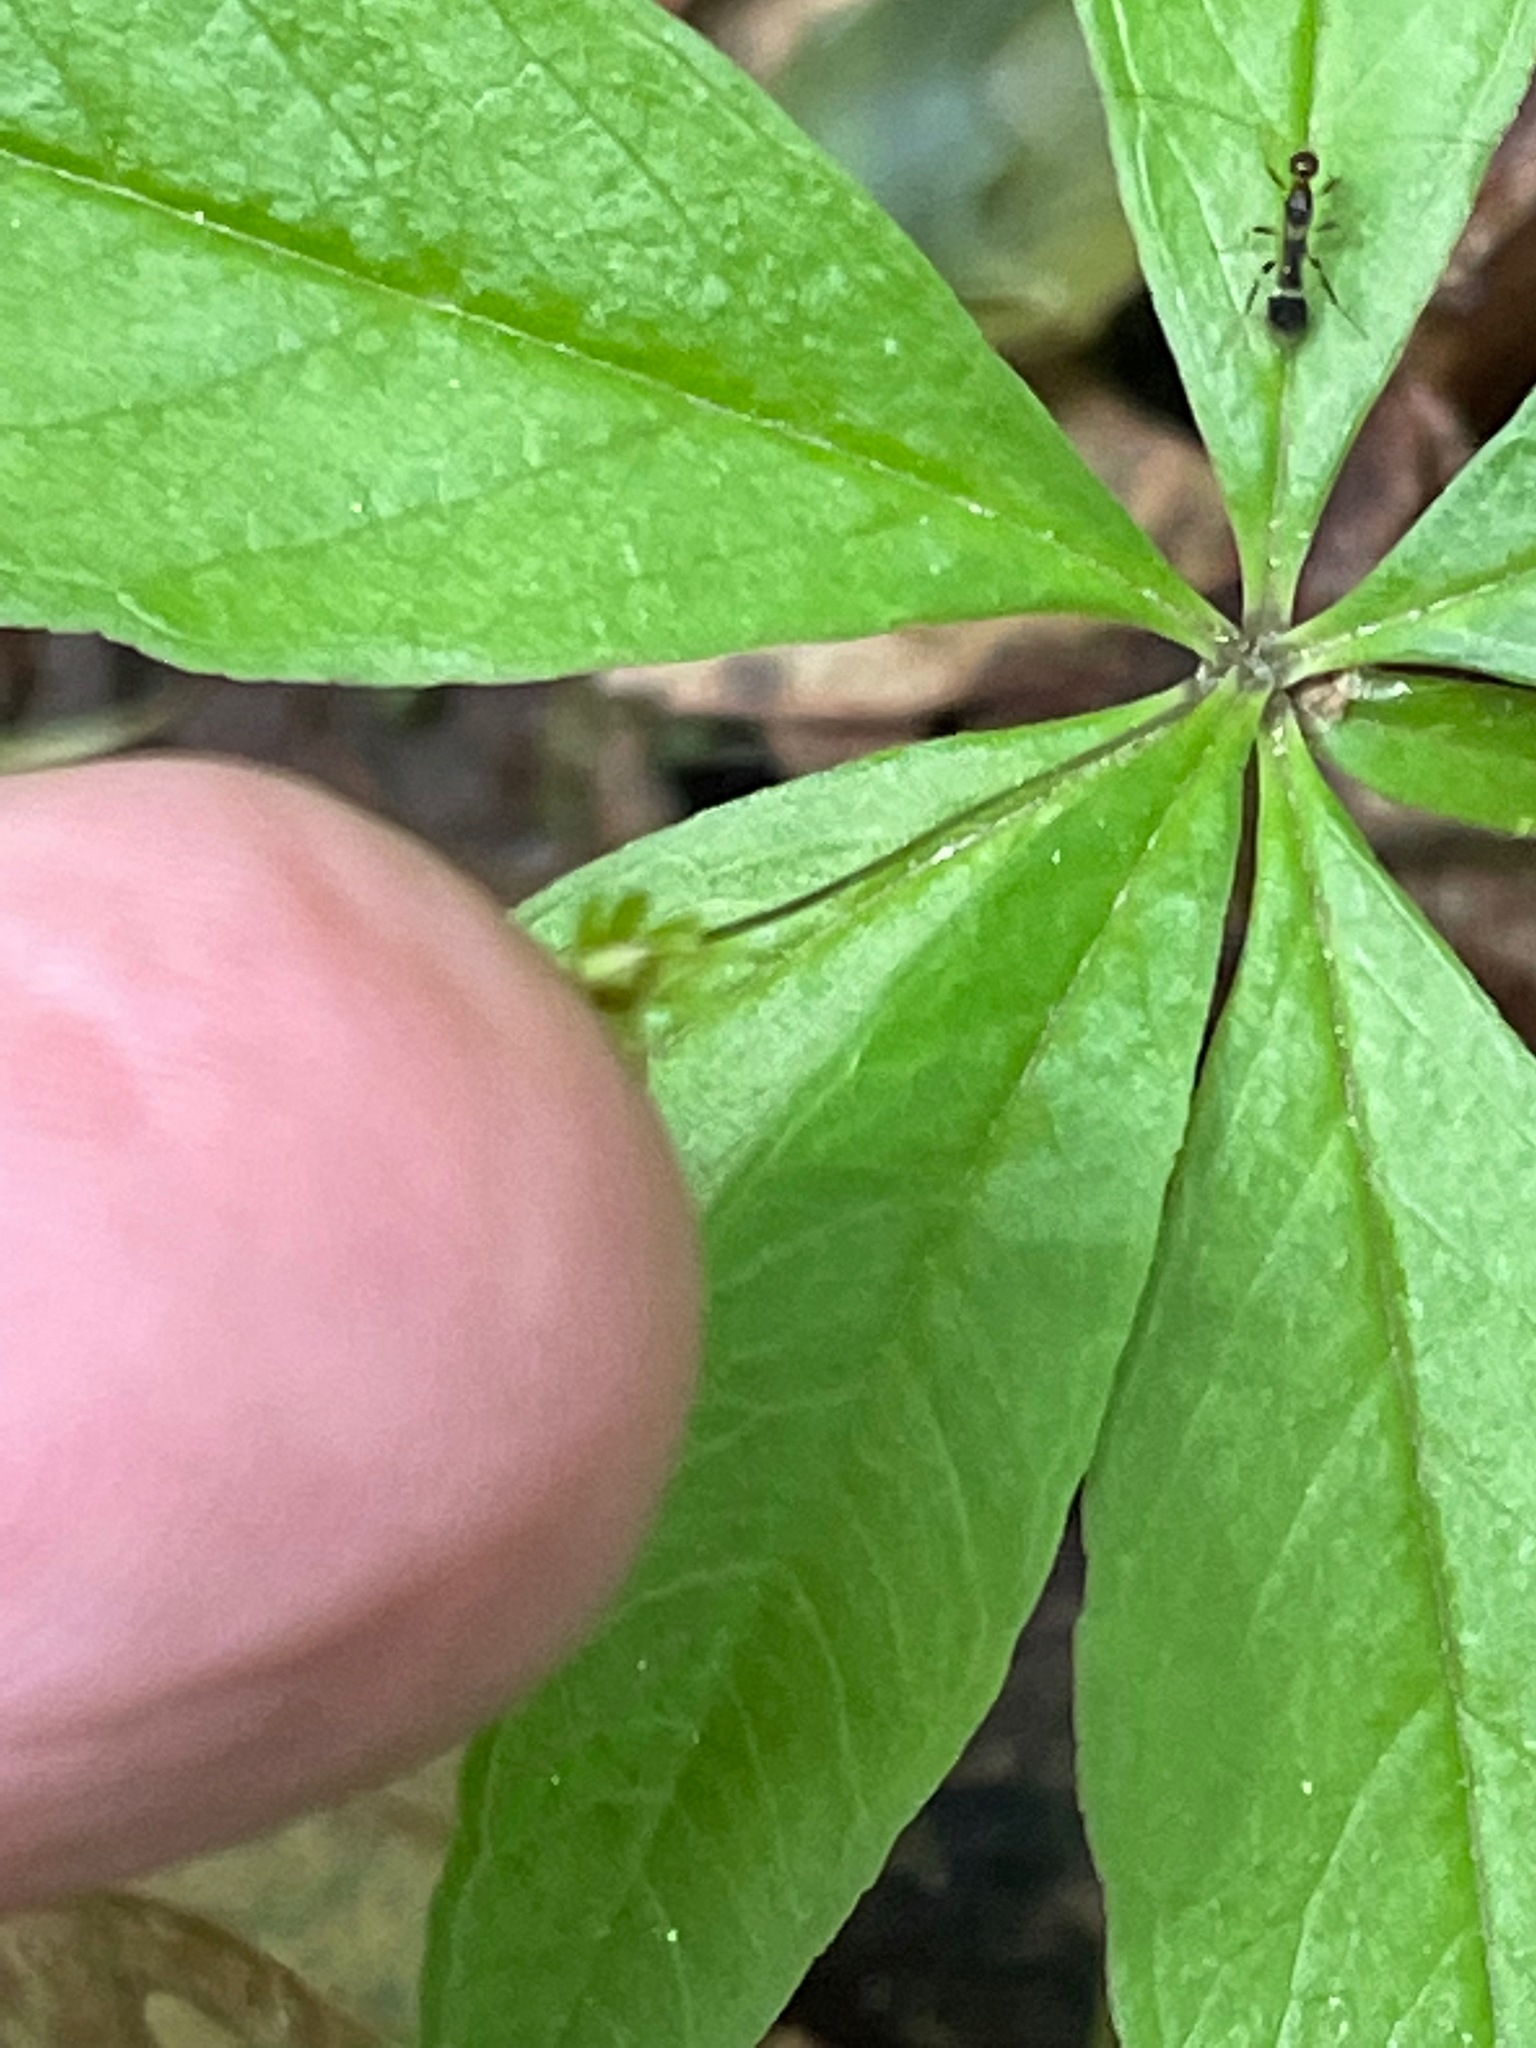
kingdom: Plantae
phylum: Tracheophyta
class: Magnoliopsida
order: Ericales
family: Primulaceae
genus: Lysimachia
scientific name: Lysimachia borealis
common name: American starflower
